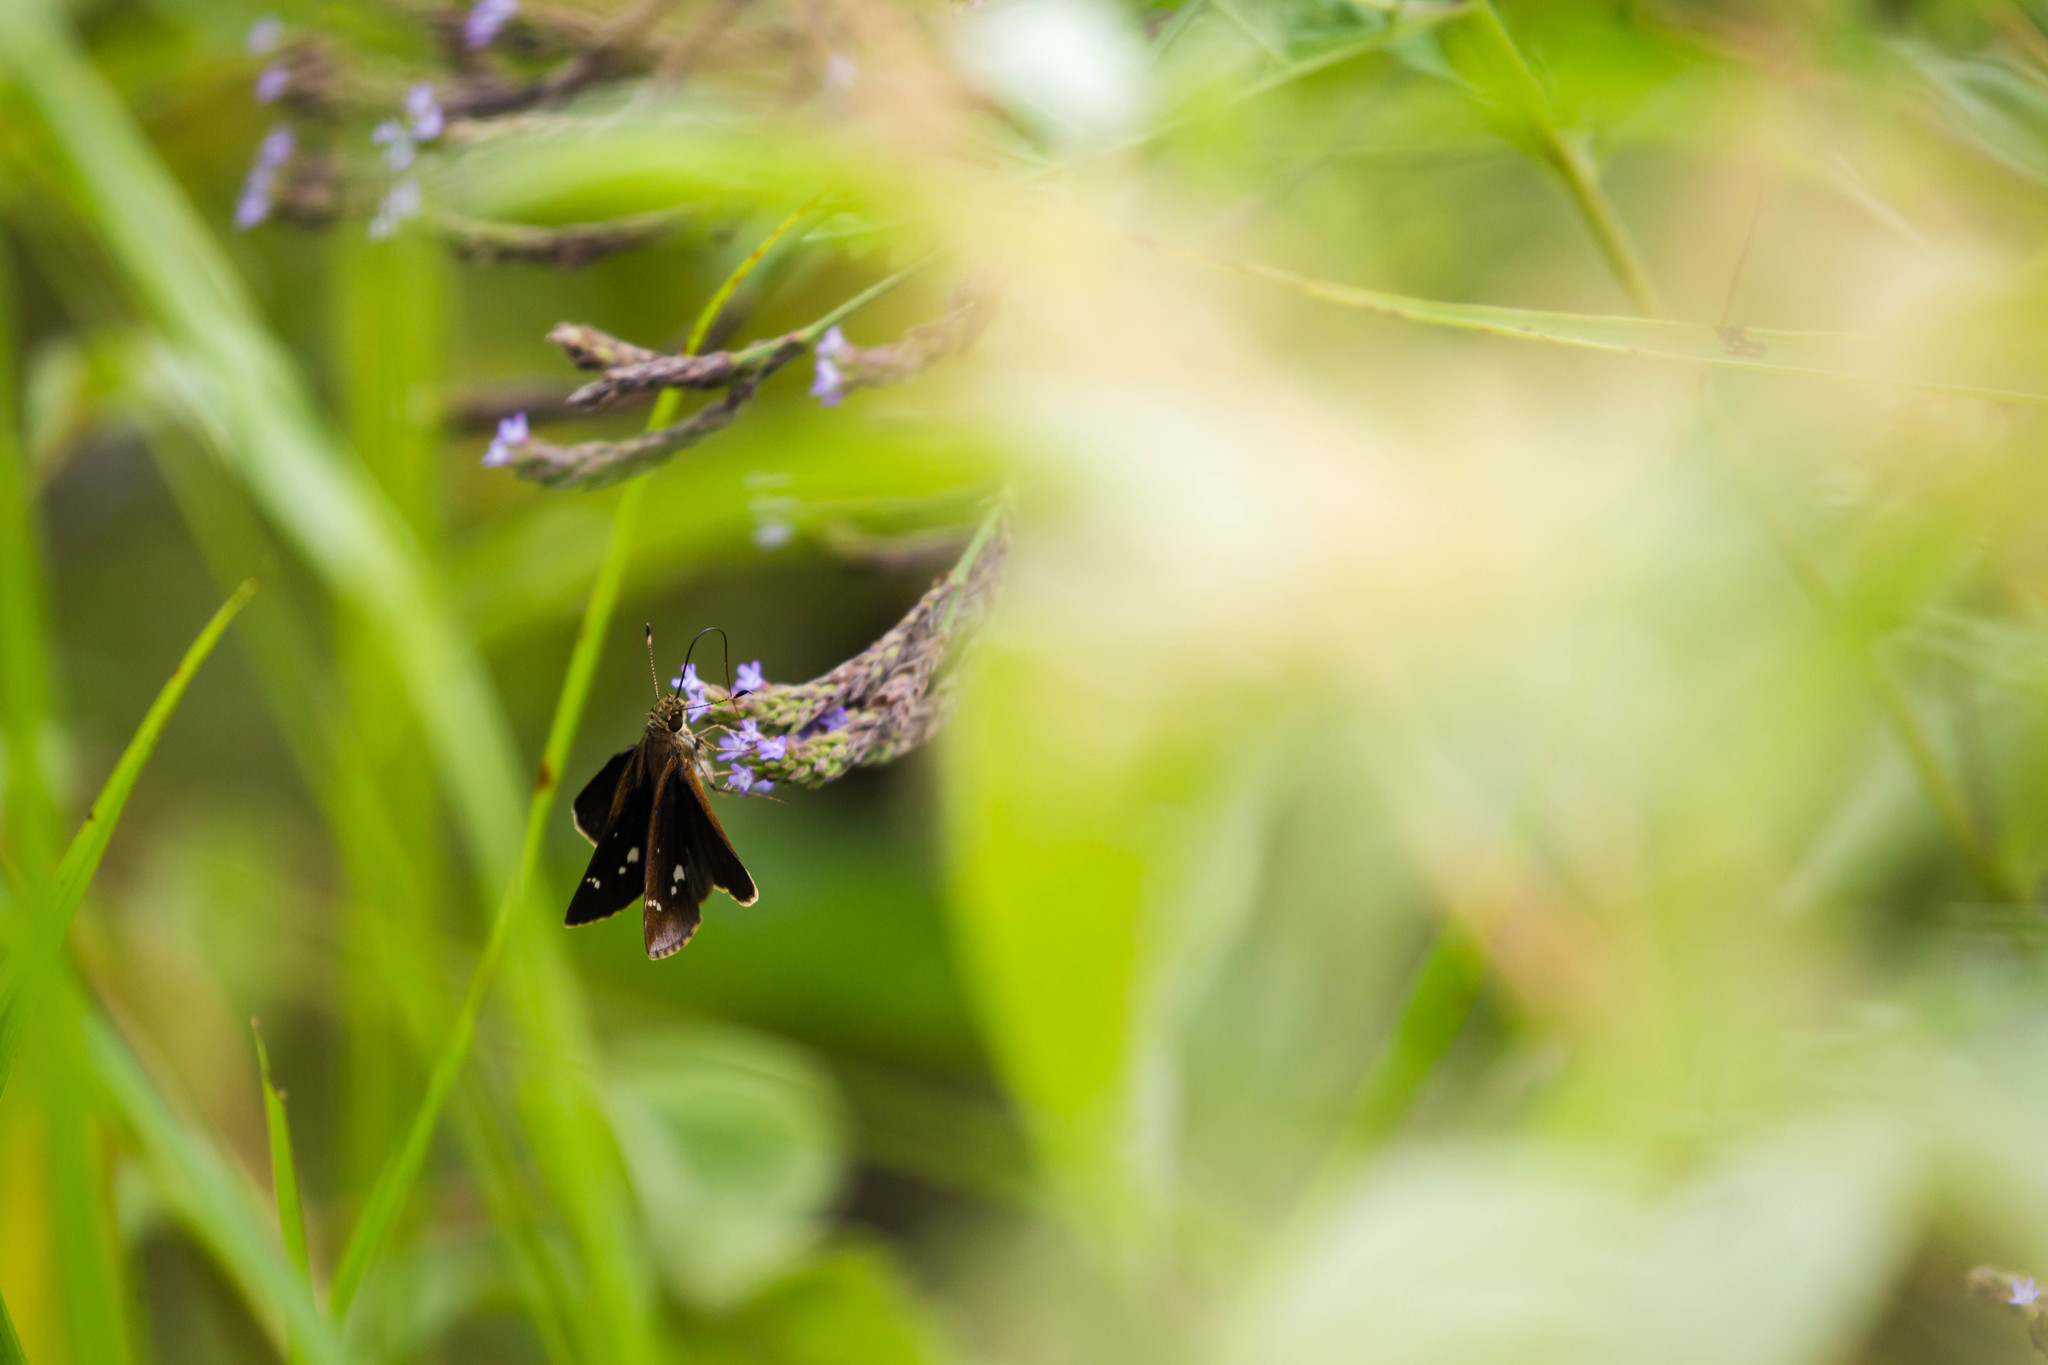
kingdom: Animalia
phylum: Arthropoda
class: Insecta
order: Lepidoptera
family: Hesperiidae
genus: Lerema
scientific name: Lerema accius
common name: Clouded skipper
